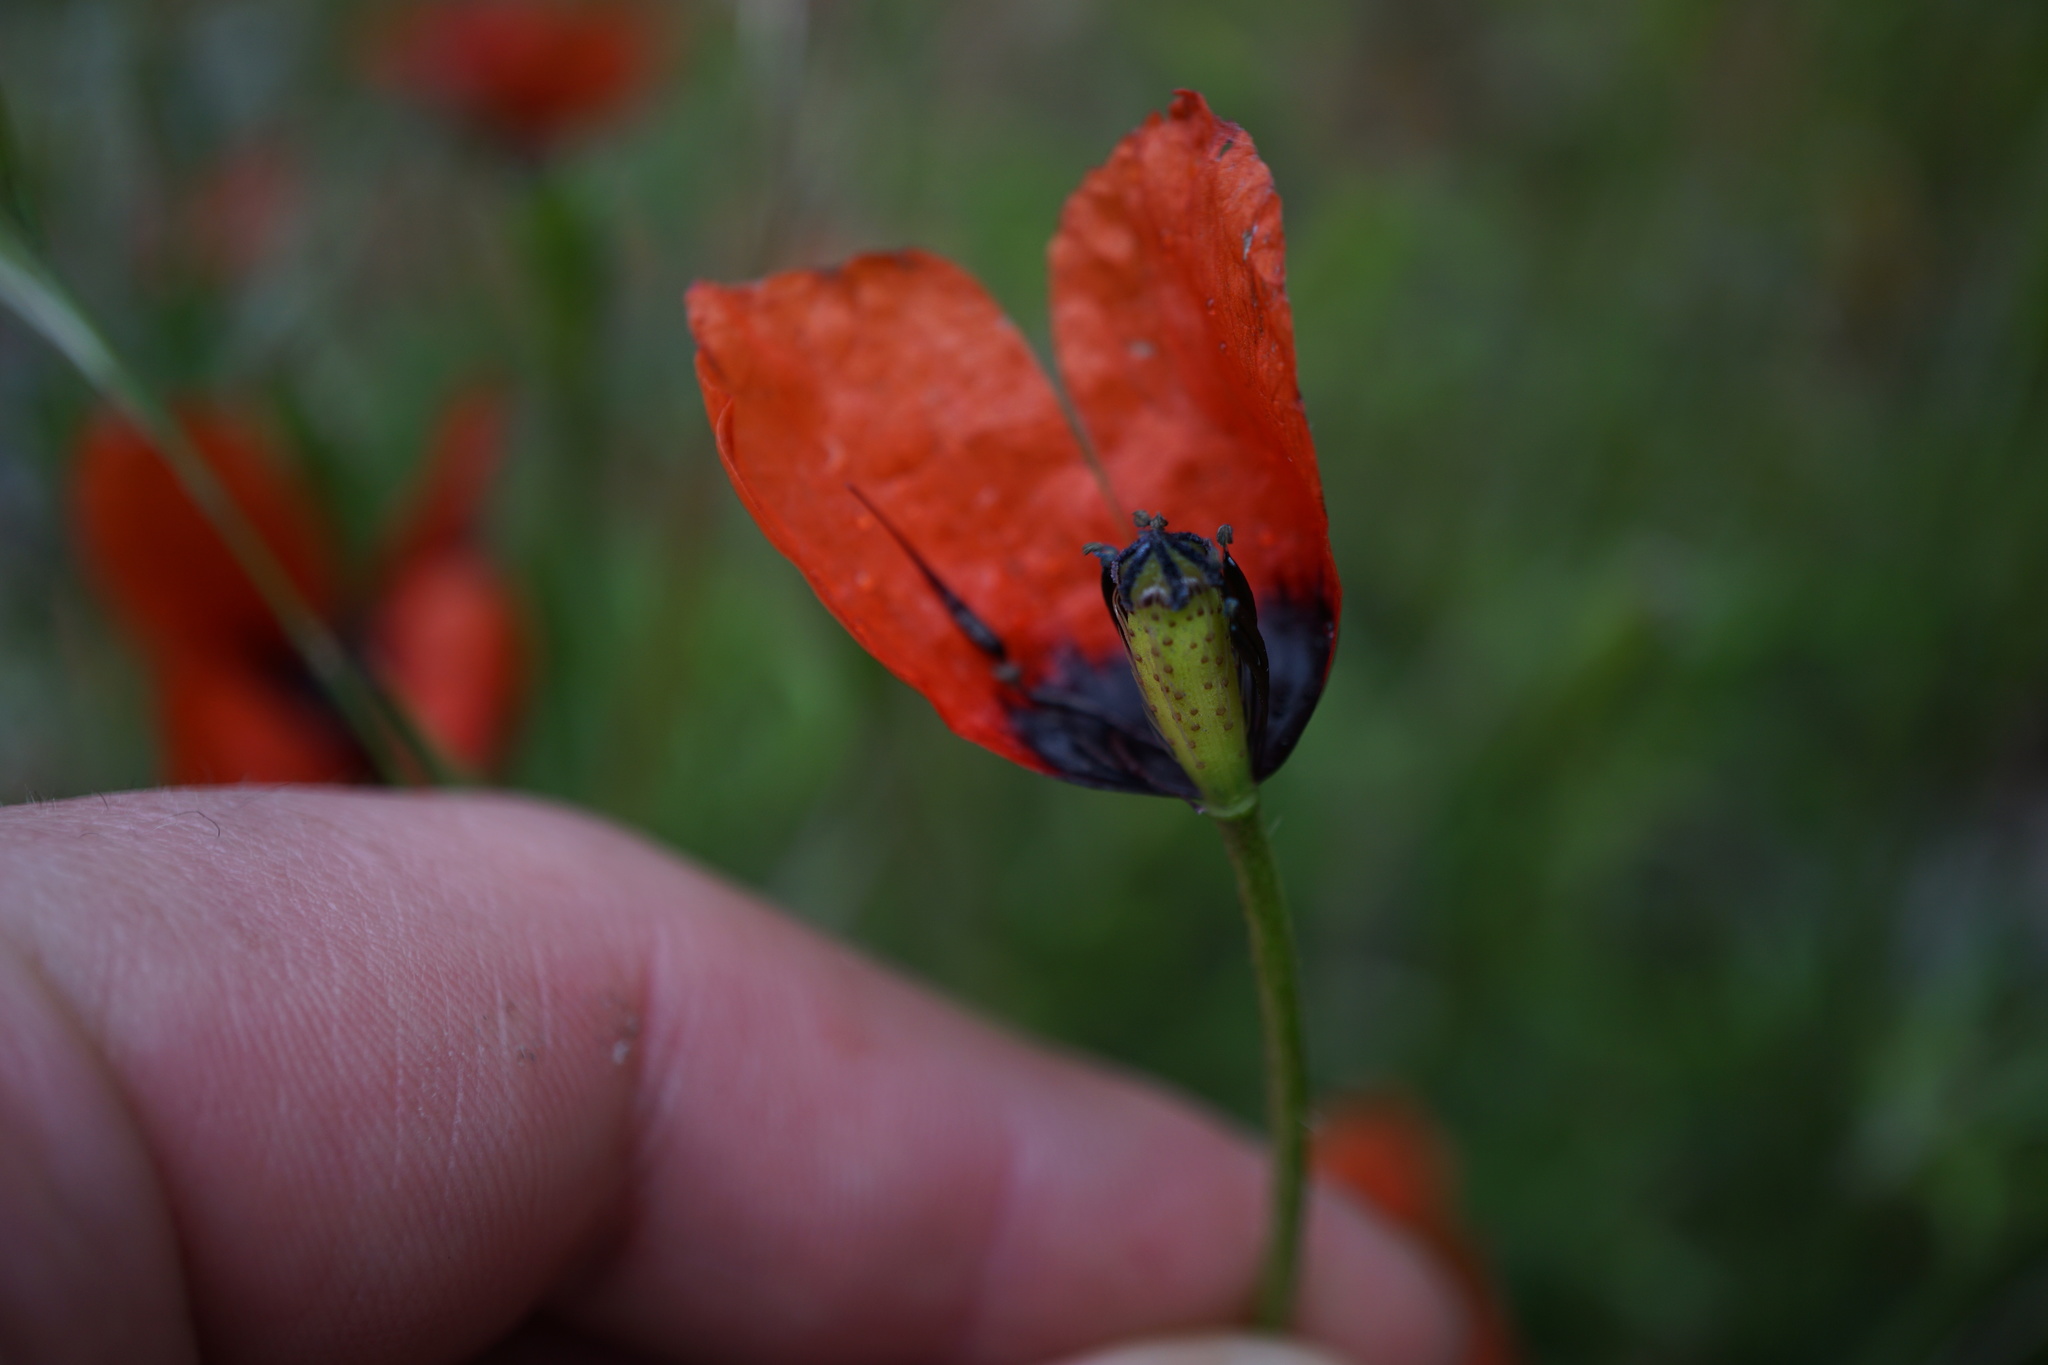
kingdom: Plantae
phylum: Tracheophyta
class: Magnoliopsida
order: Ranunculales
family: Papaveraceae
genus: Roemeria
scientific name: Roemeria argemone
